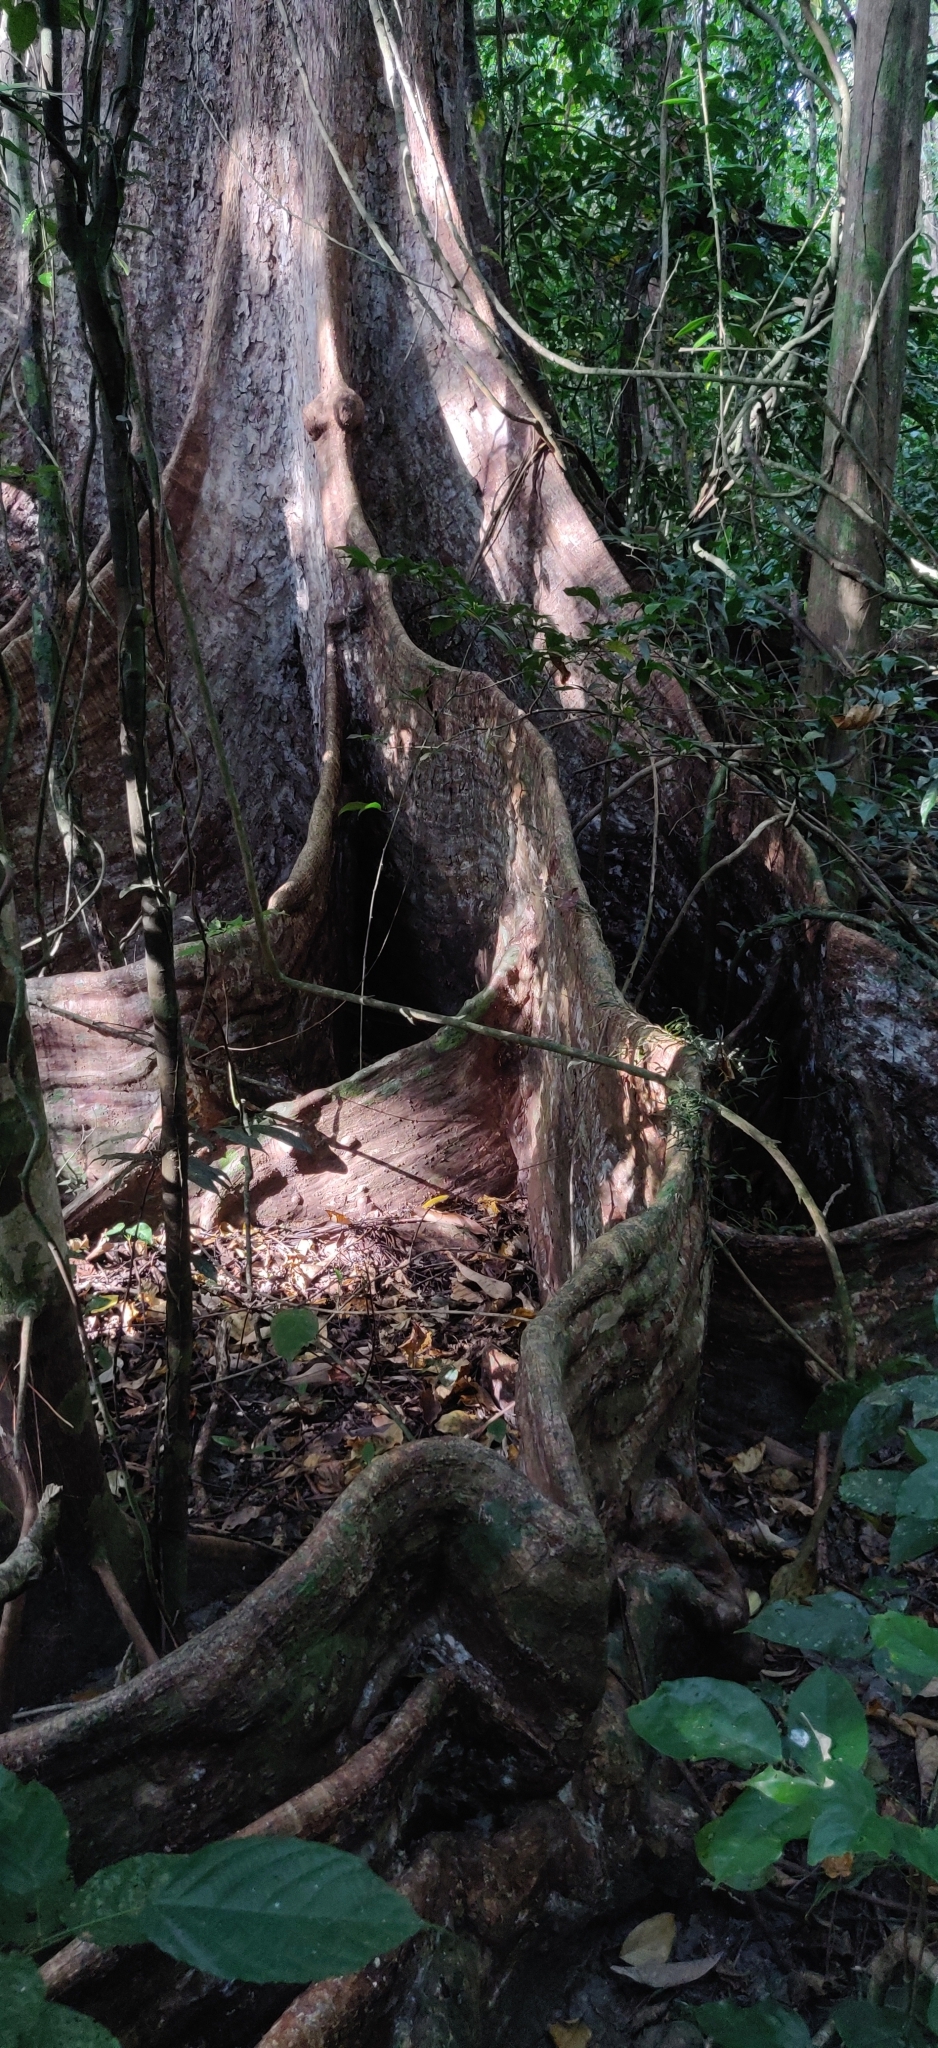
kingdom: Plantae
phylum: Tracheophyta
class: Magnoliopsida
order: Myrtales
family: Combretaceae
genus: Terminalia
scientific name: Terminalia calamansanai
